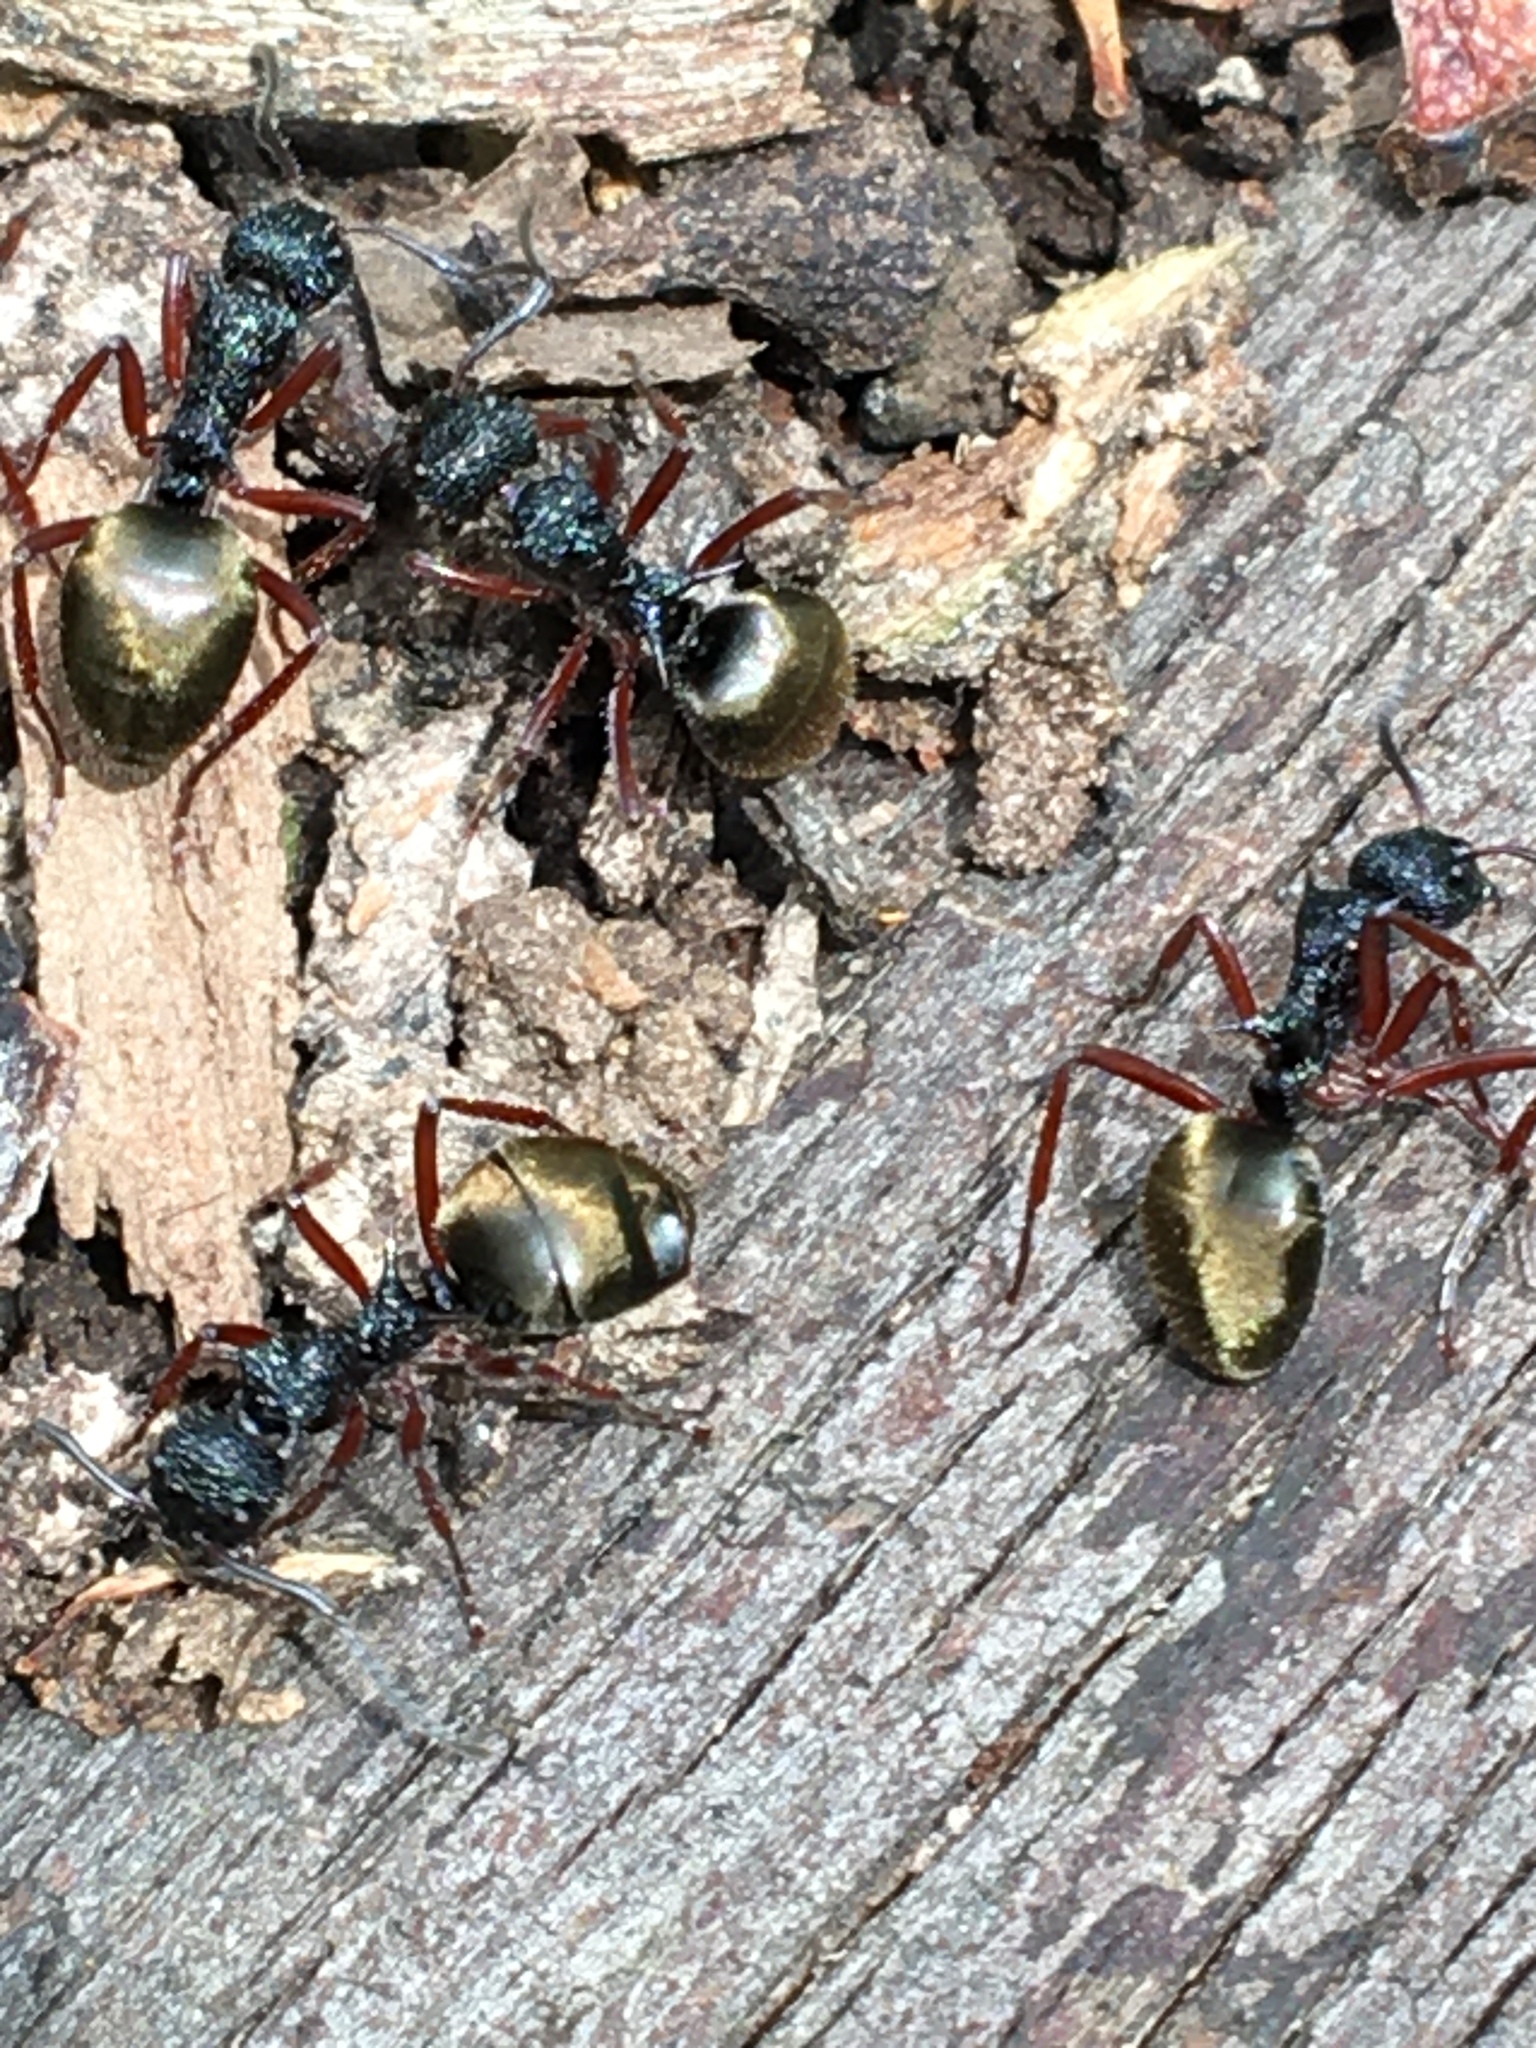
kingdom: Animalia
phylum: Arthropoda
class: Insecta
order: Hymenoptera
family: Formicidae
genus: Dolichoderus
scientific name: Dolichoderus doriae
